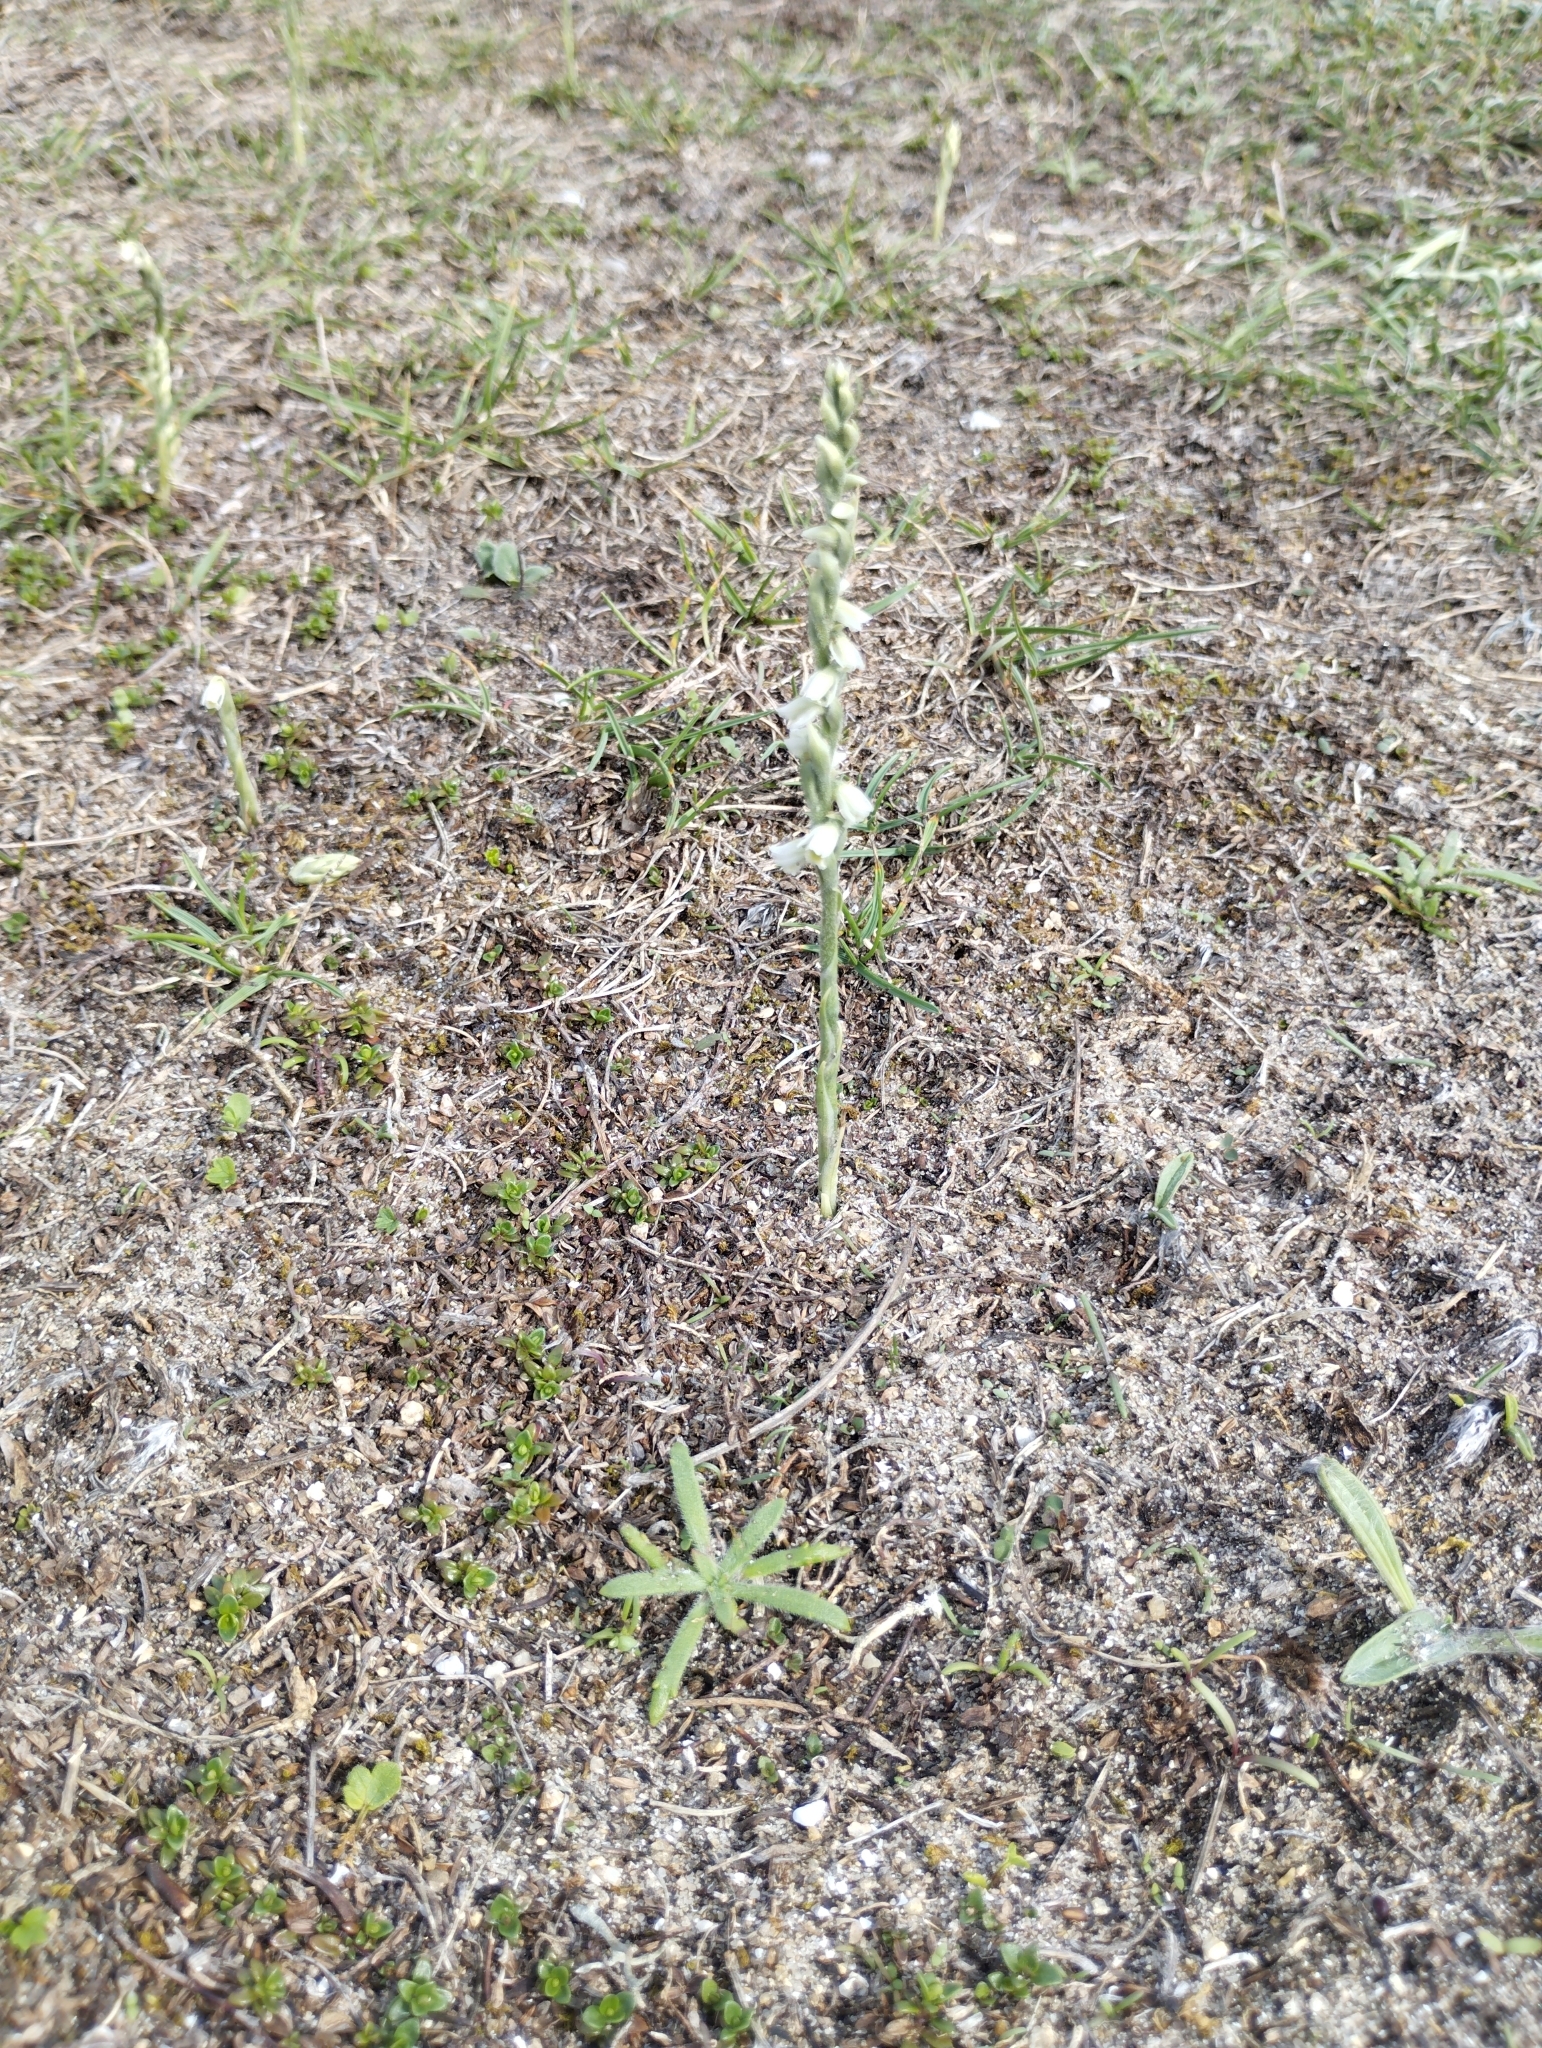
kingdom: Plantae
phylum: Tracheophyta
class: Liliopsida
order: Asparagales
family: Orchidaceae
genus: Spiranthes
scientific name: Spiranthes spiralis
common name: Autumn lady's-tresses
